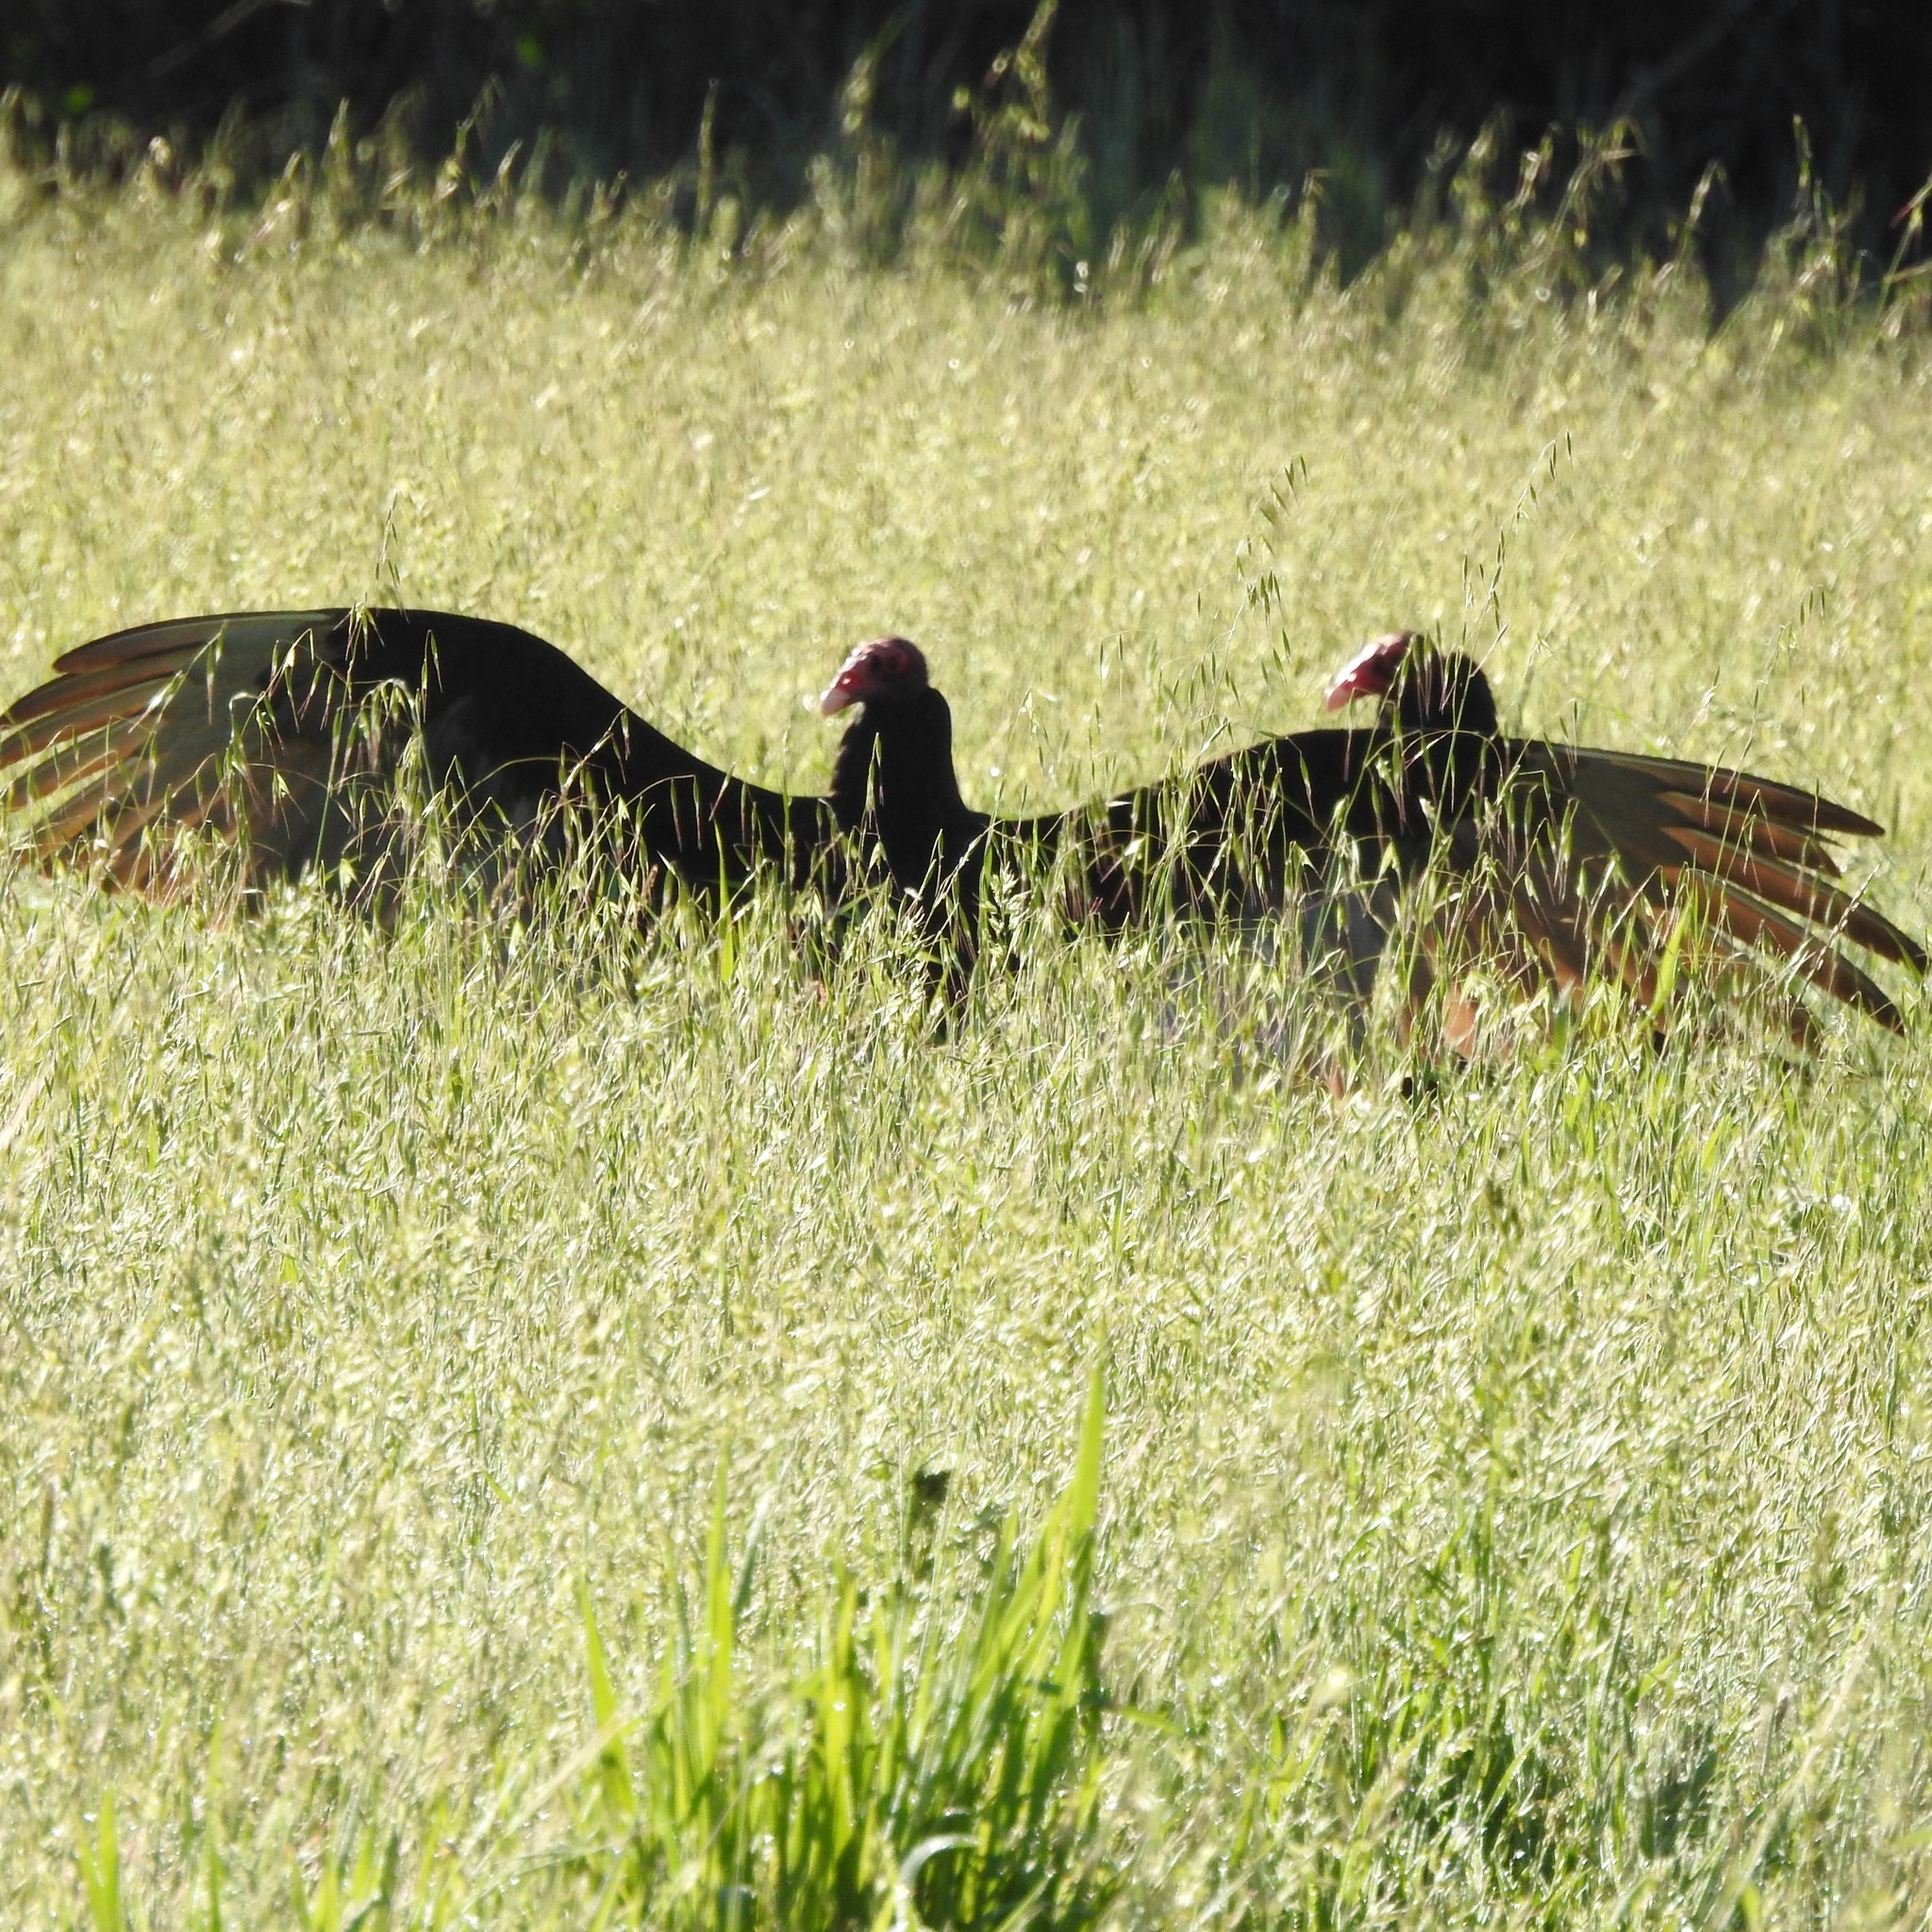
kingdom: Animalia
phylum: Chordata
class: Aves
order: Accipitriformes
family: Cathartidae
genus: Cathartes
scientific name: Cathartes aura
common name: Turkey vulture
